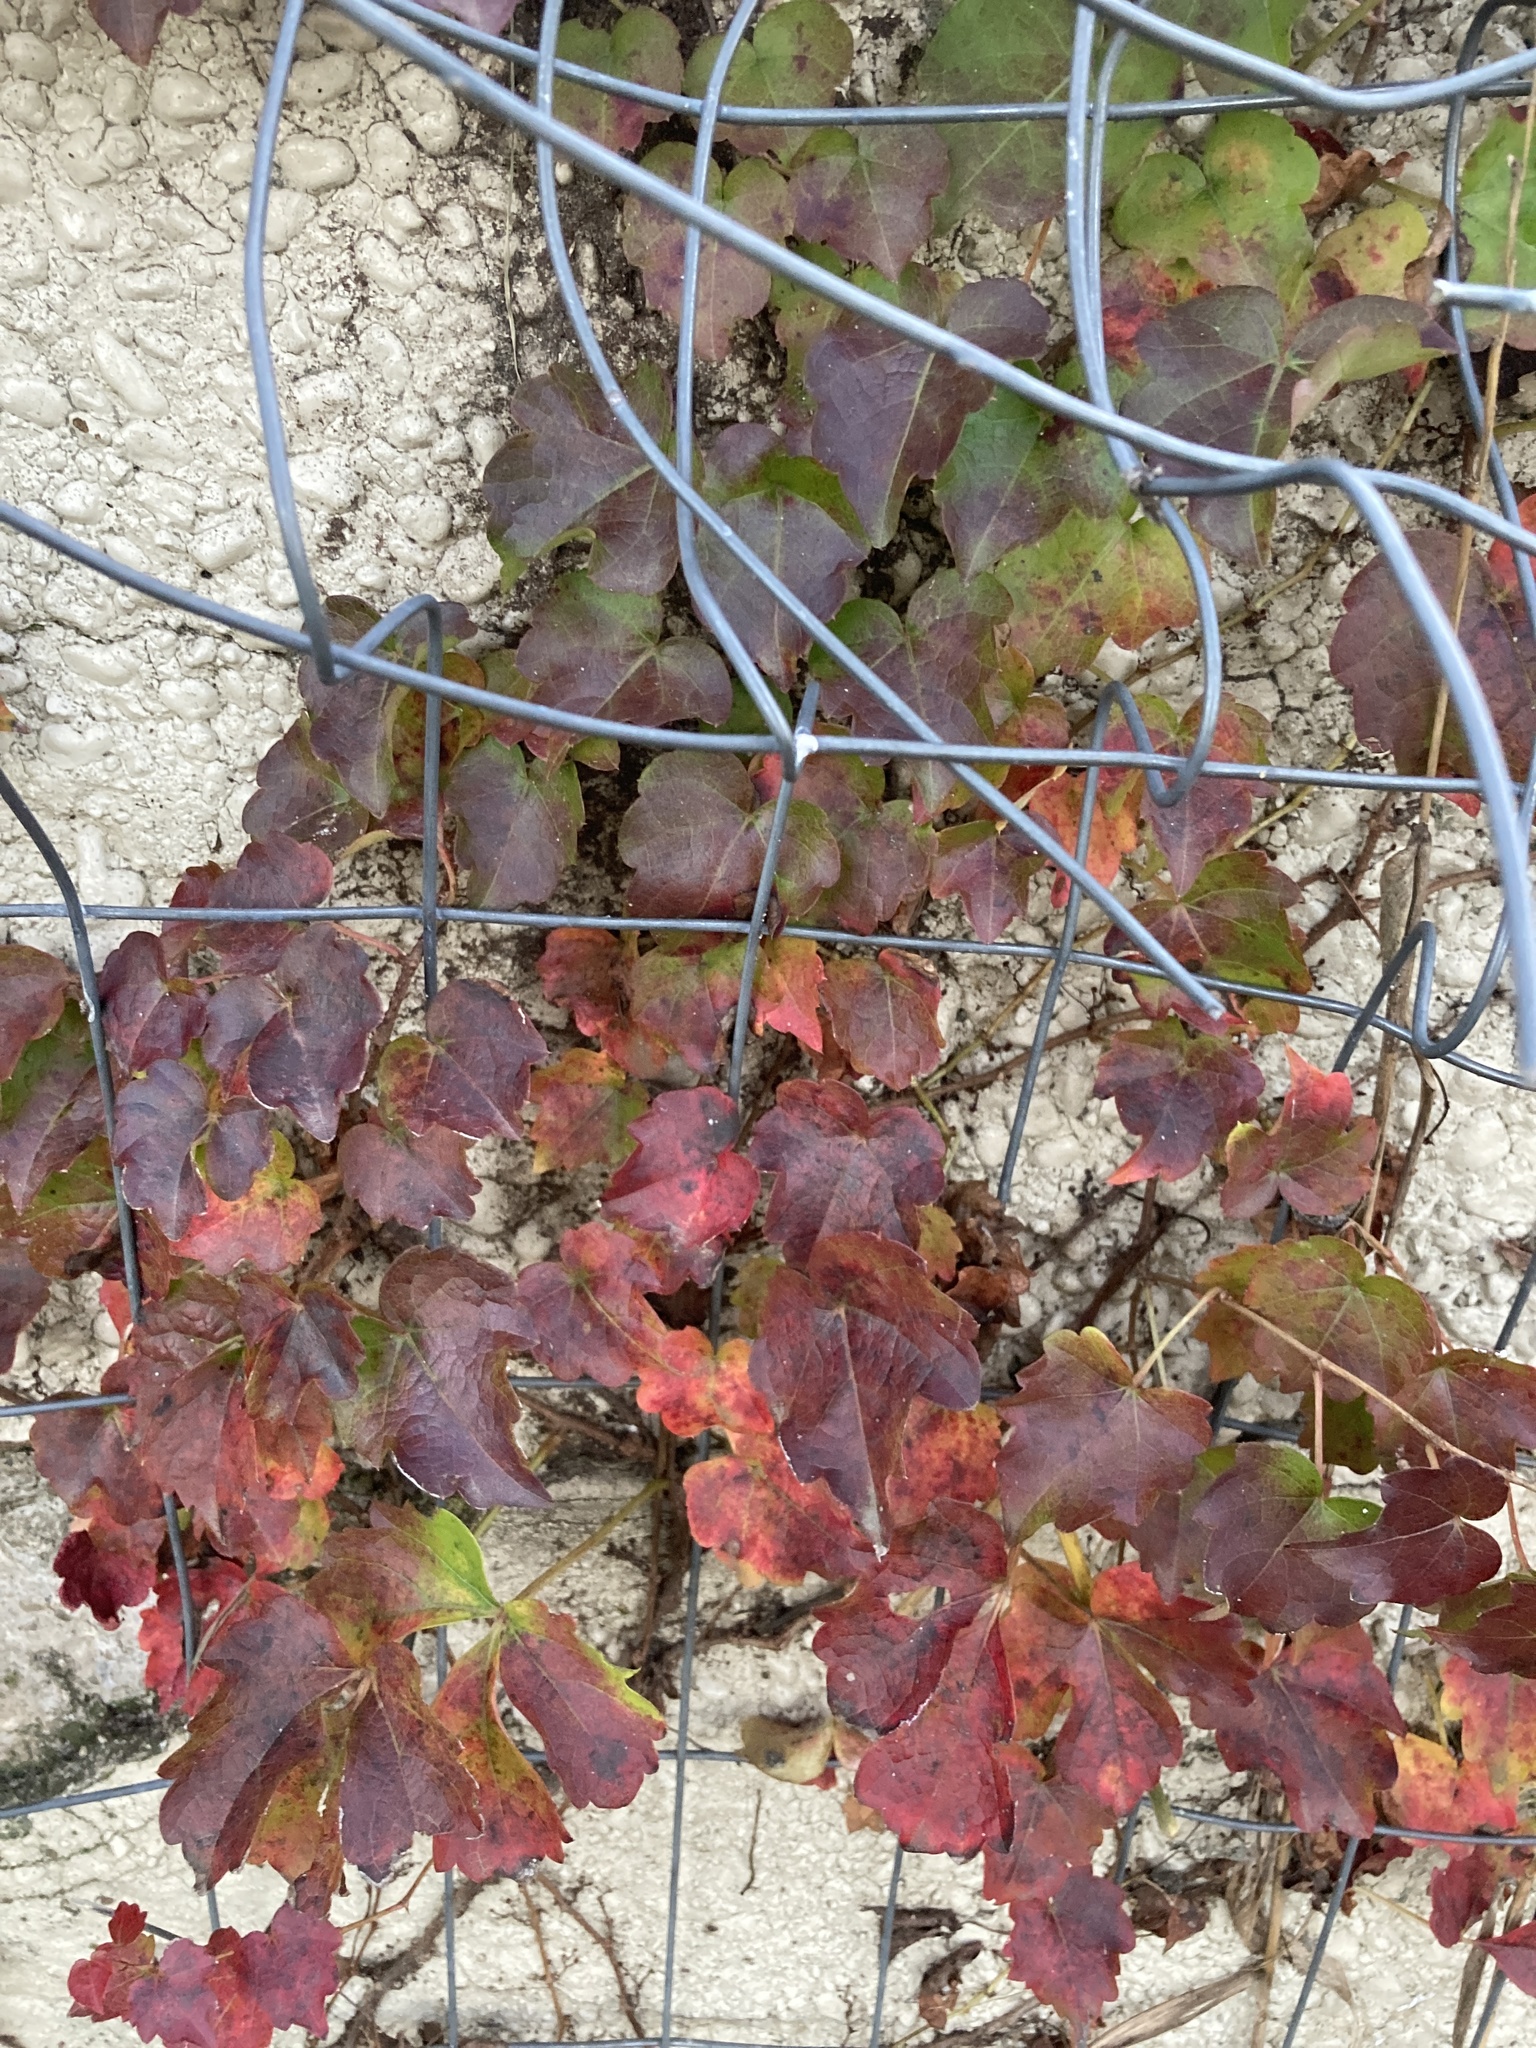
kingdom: Plantae
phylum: Tracheophyta
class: Magnoliopsida
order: Vitales
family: Vitaceae
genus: Parthenocissus
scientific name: Parthenocissus tricuspidata
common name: Boston ivy
